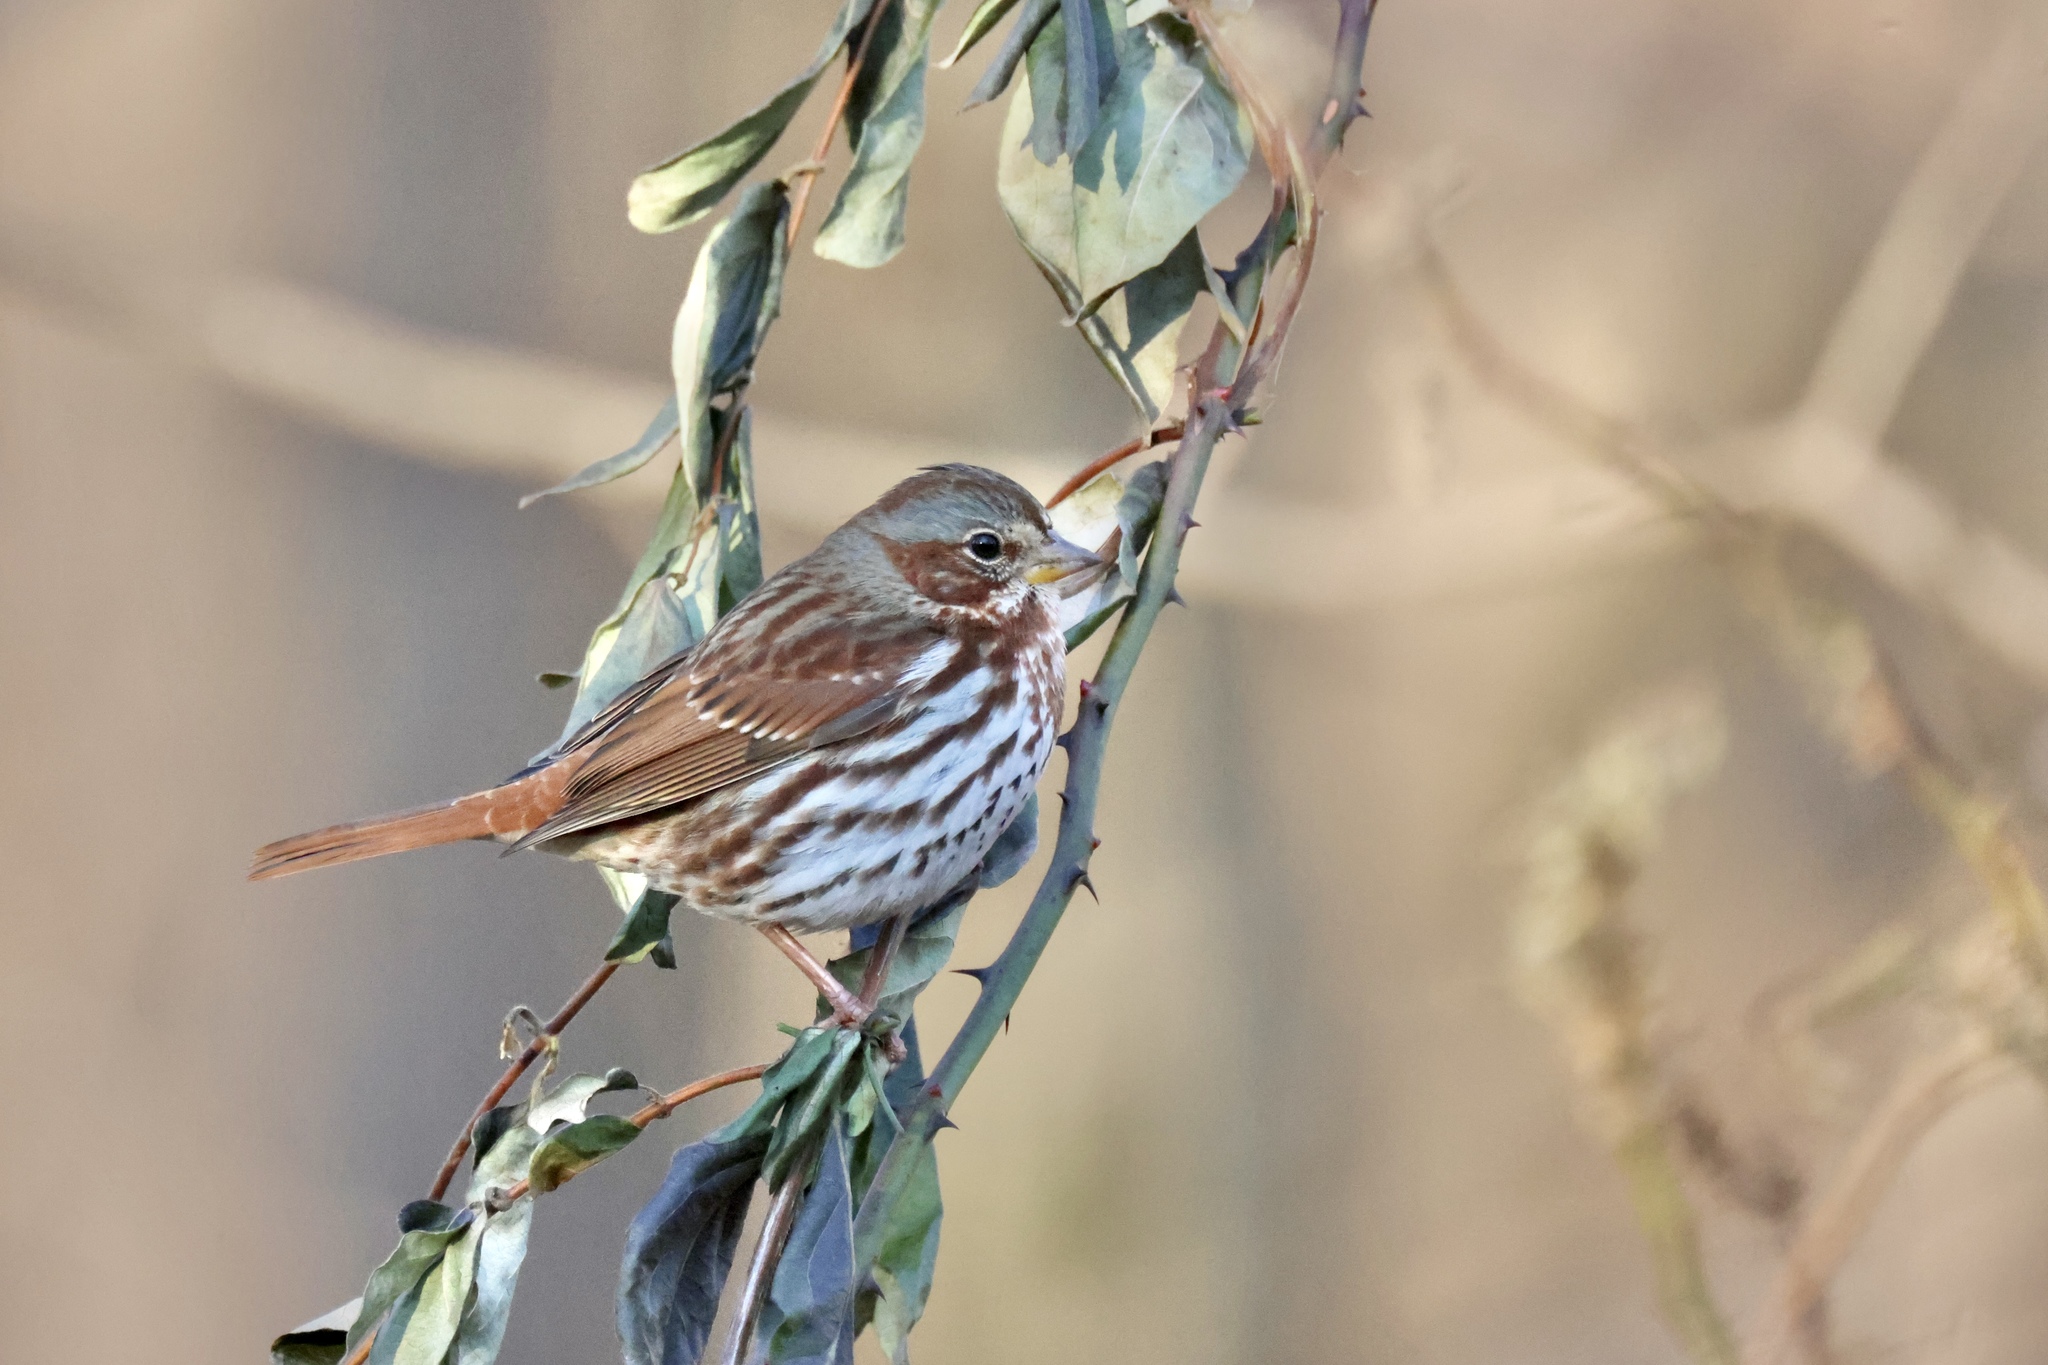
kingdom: Animalia
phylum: Chordata
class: Aves
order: Passeriformes
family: Passerellidae
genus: Passerella
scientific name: Passerella iliaca
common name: Fox sparrow
